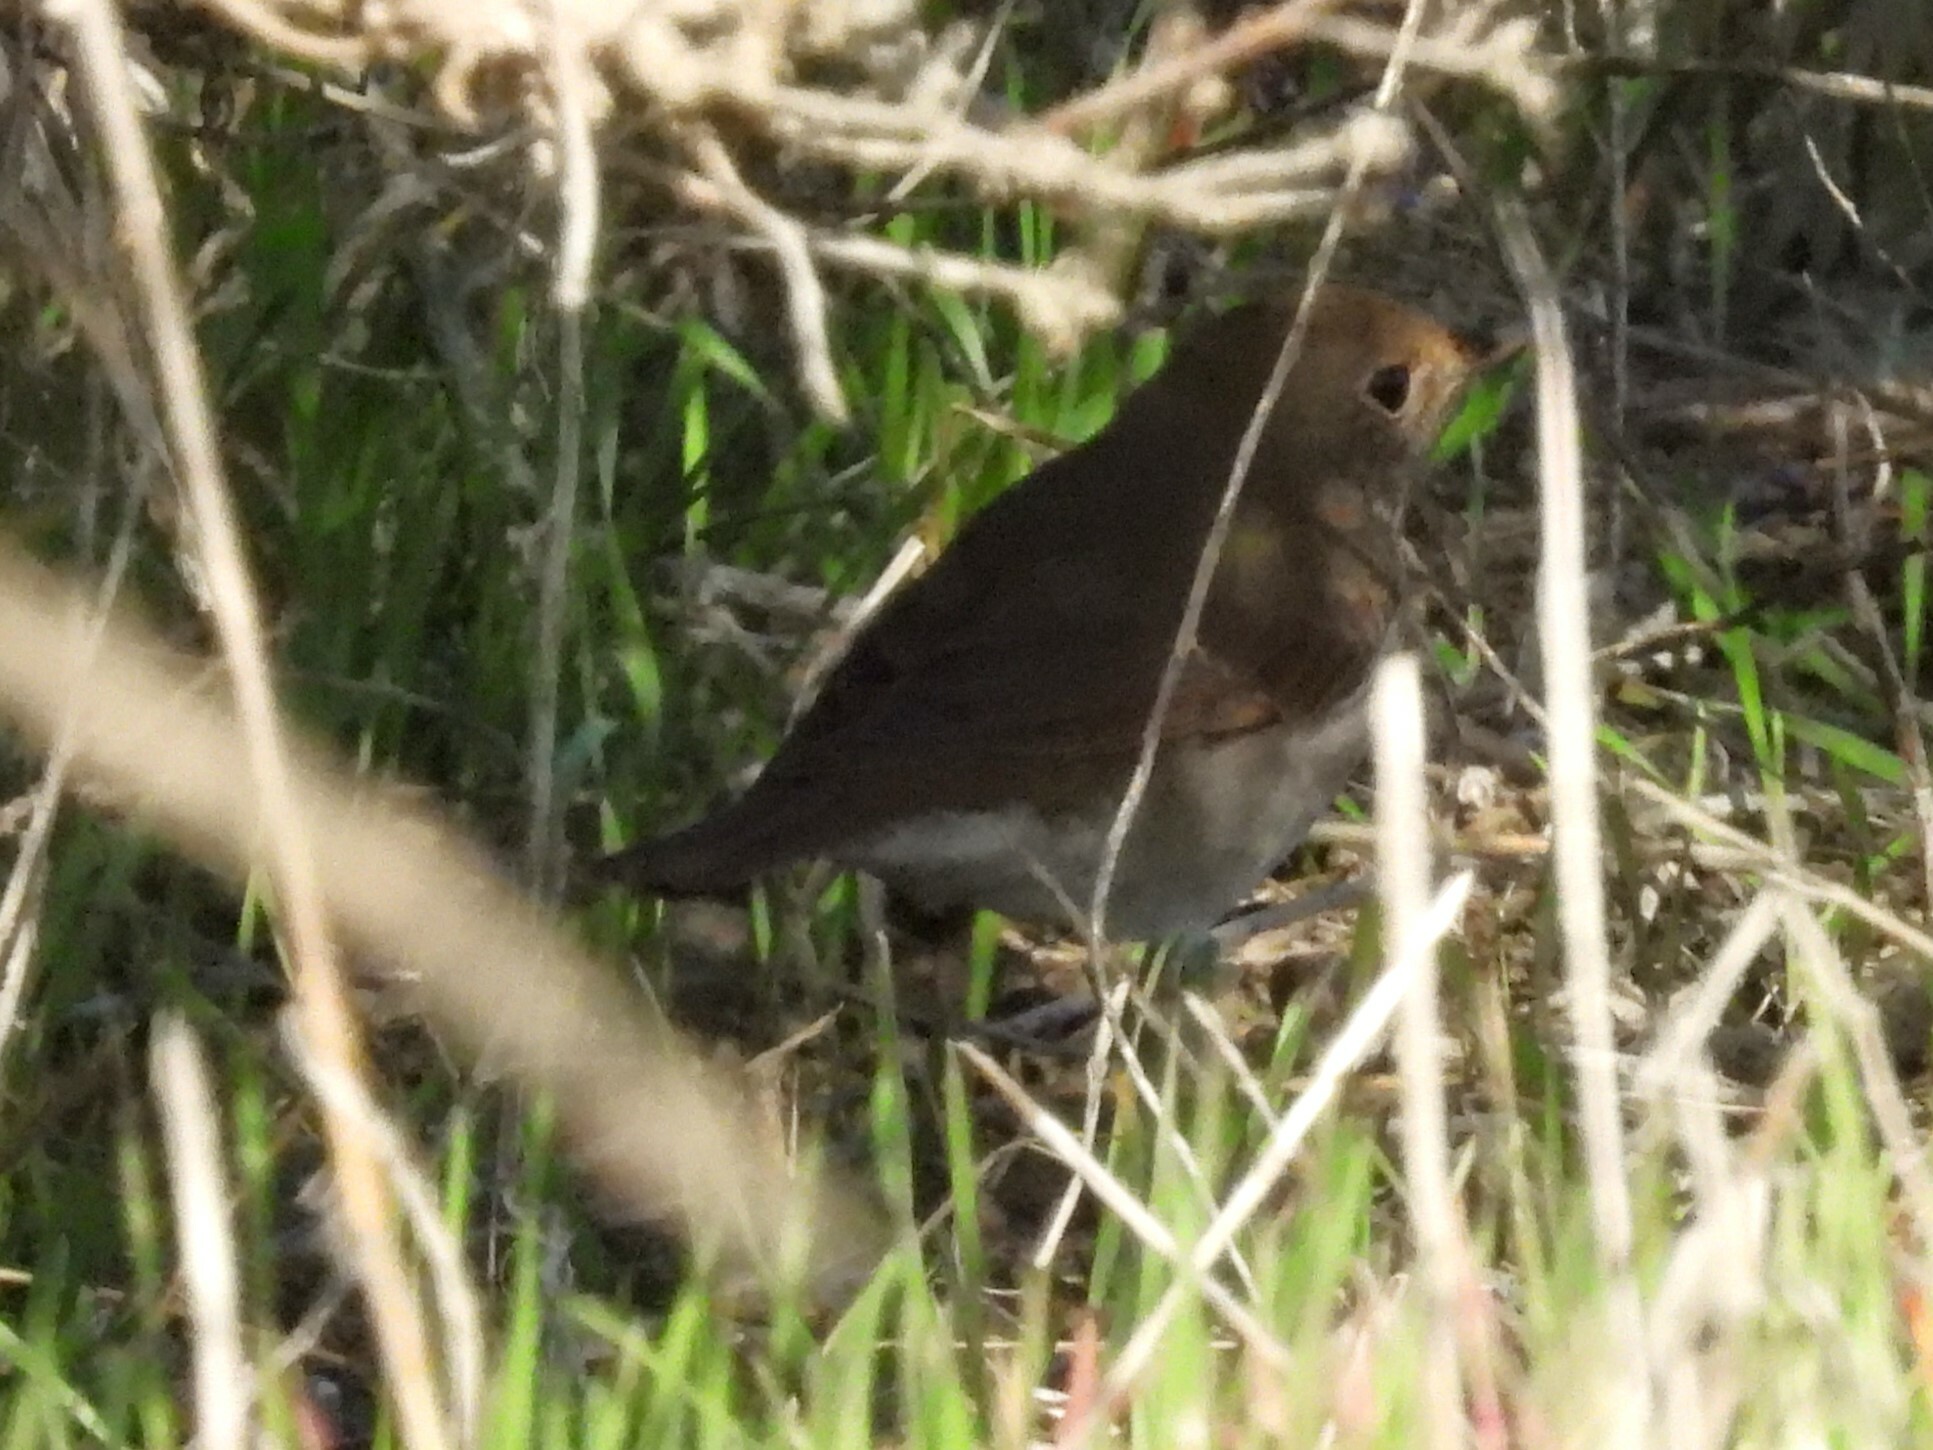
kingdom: Animalia
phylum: Chordata
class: Aves
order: Passeriformes
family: Turdidae
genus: Catharus
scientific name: Catharus guttatus
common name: Hermit thrush
